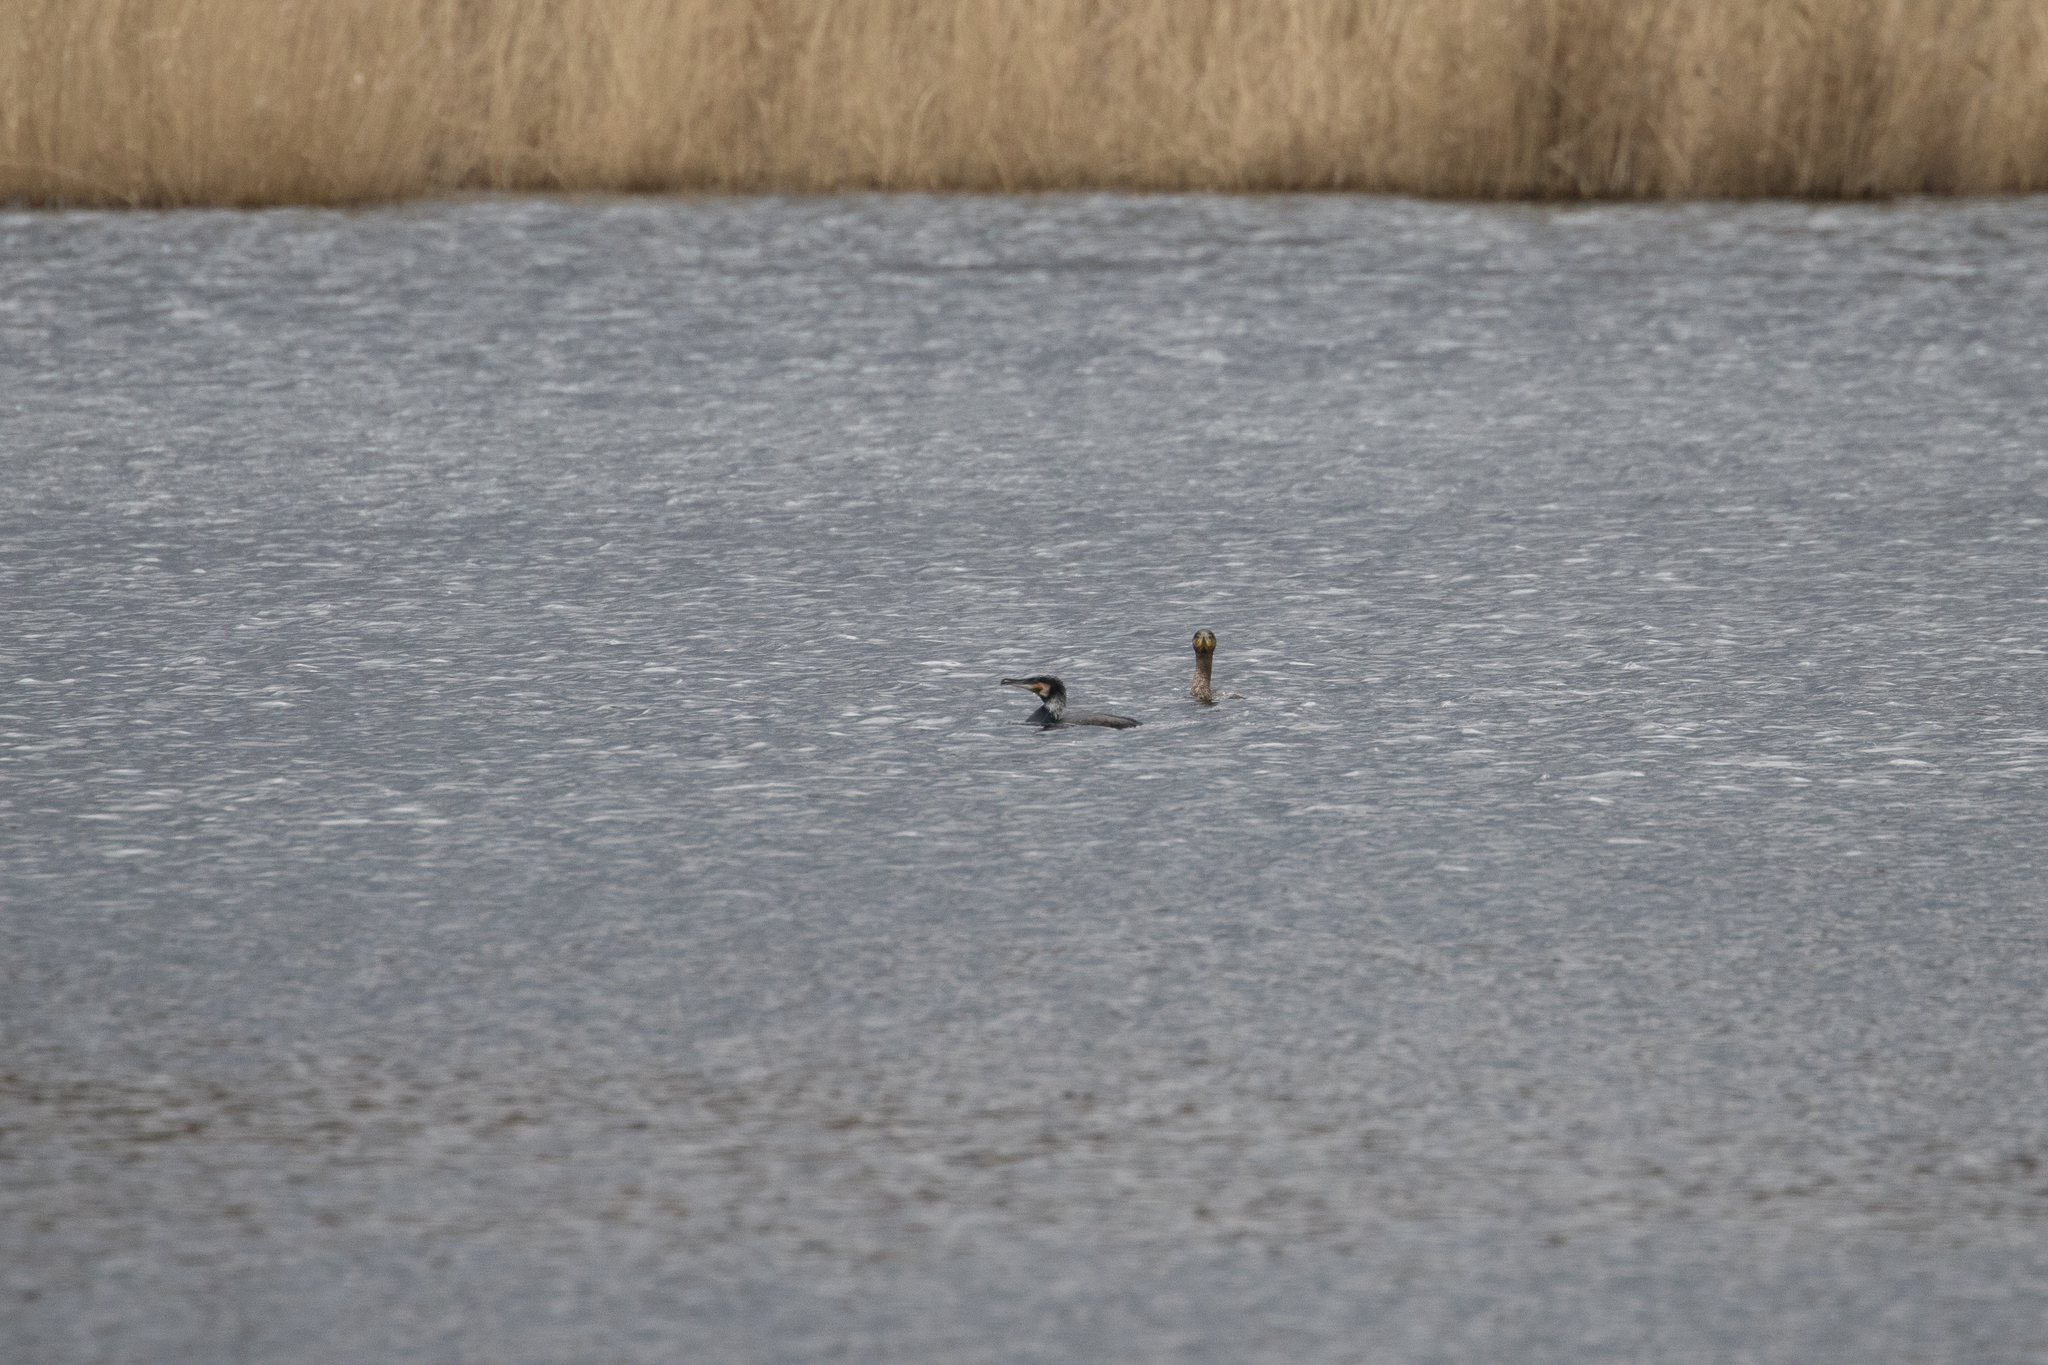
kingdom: Animalia
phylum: Chordata
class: Aves
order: Suliformes
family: Phalacrocoracidae
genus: Phalacrocorax
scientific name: Phalacrocorax carbo
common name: Great cormorant
